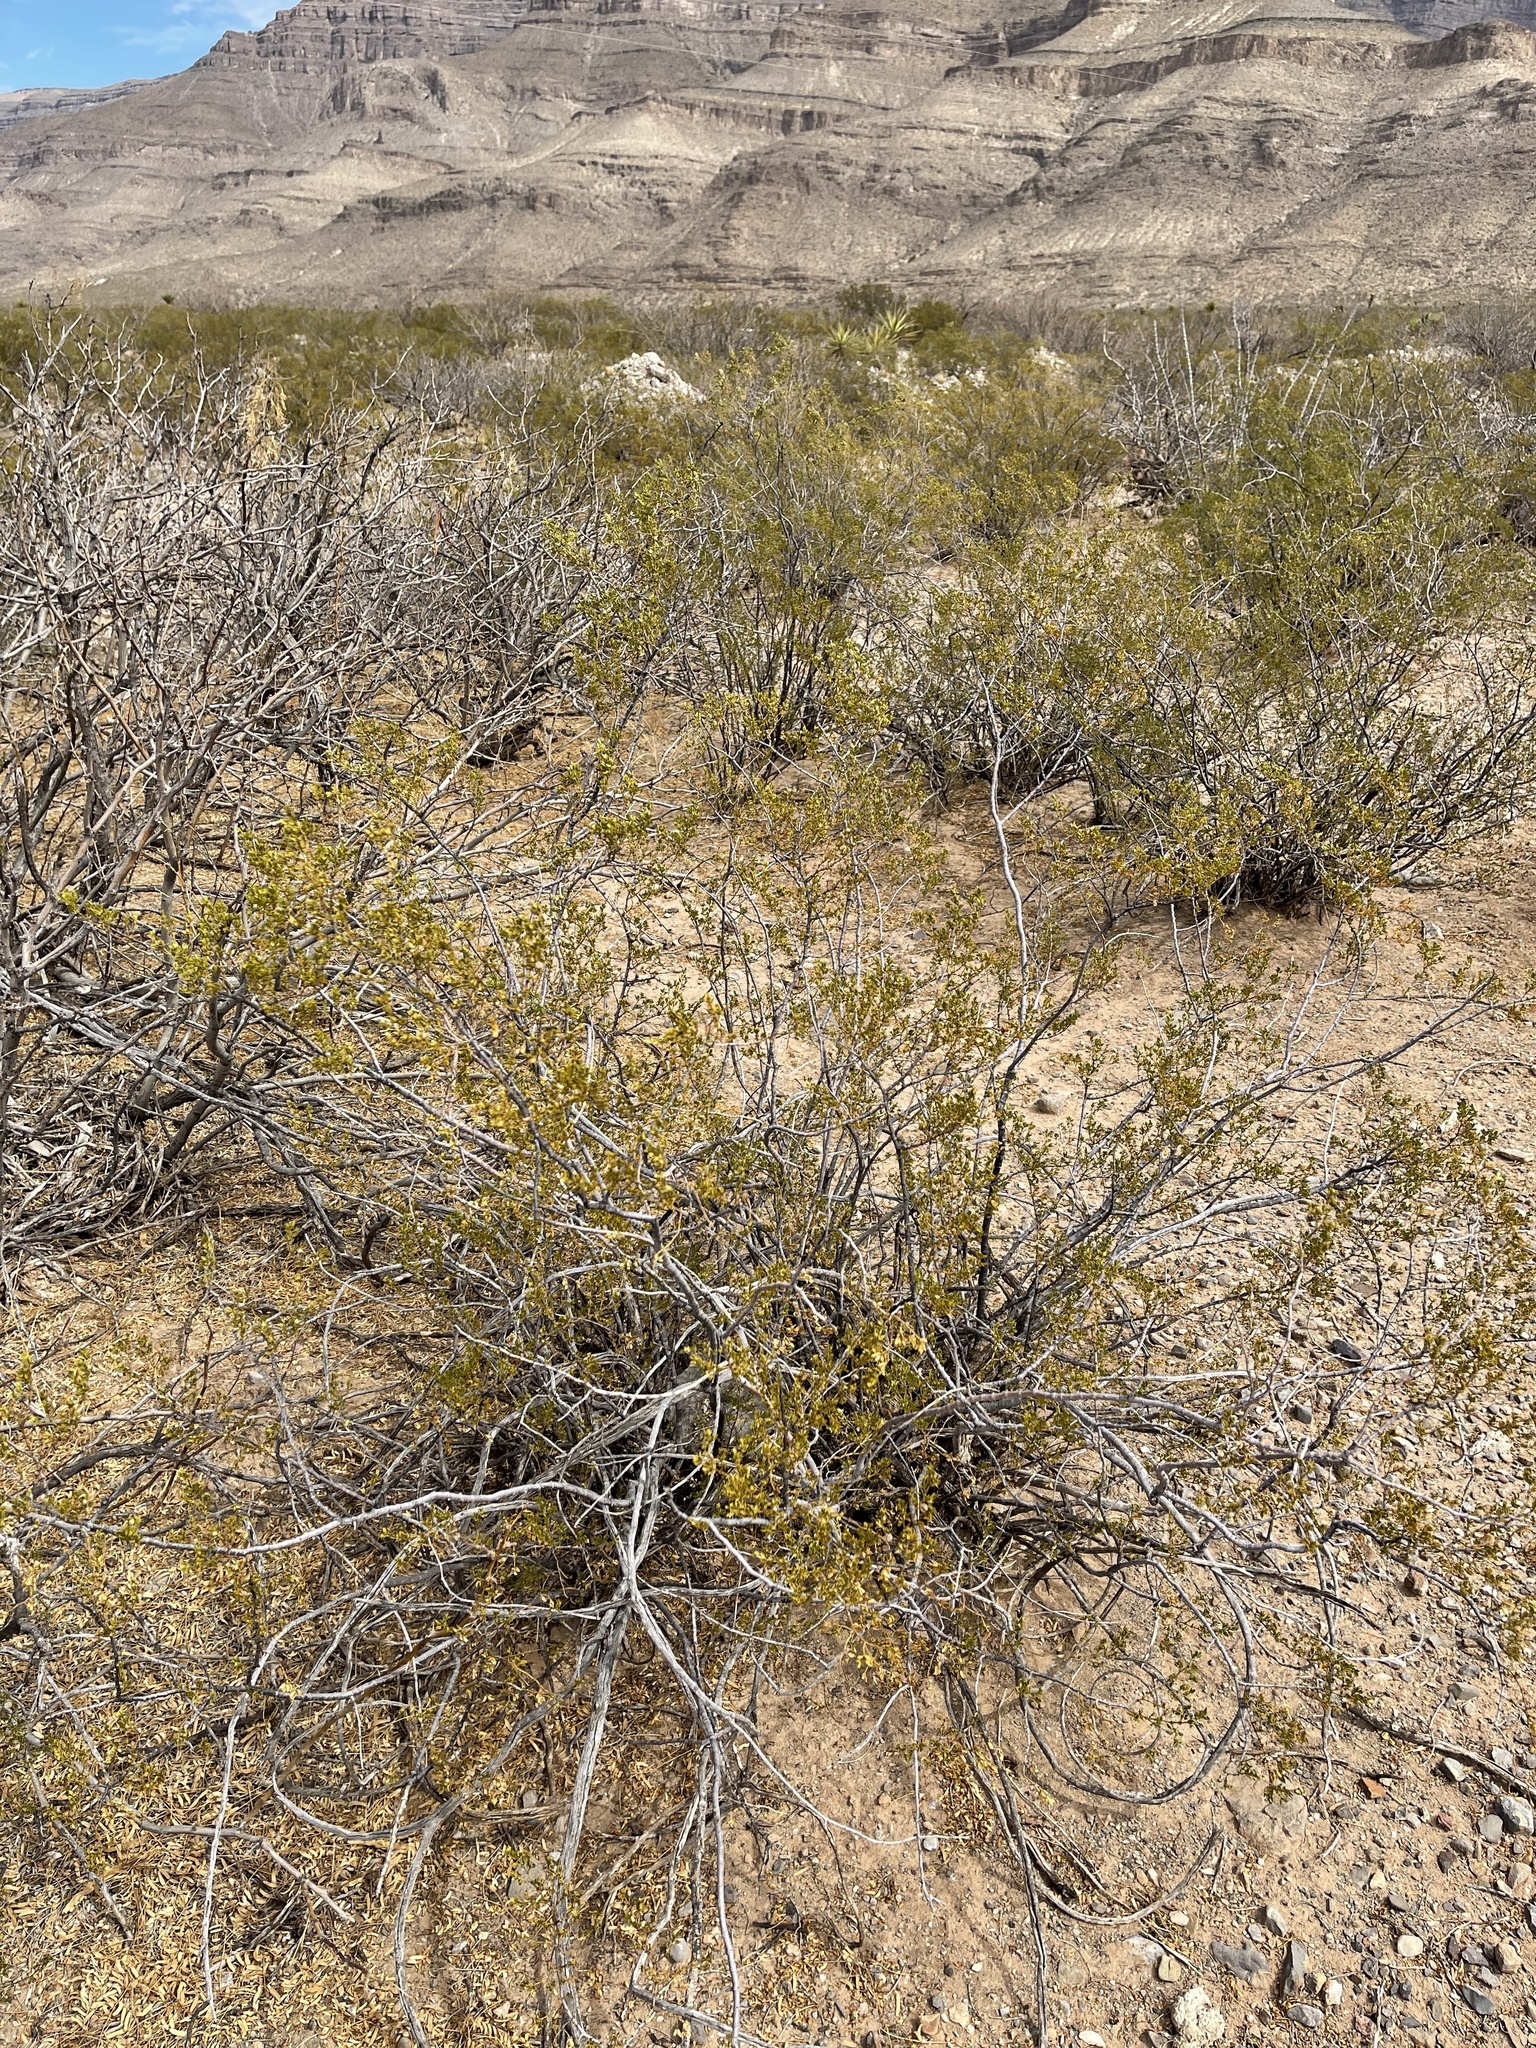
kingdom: Plantae
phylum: Tracheophyta
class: Magnoliopsida
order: Zygophyllales
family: Zygophyllaceae
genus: Larrea
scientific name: Larrea tridentata
